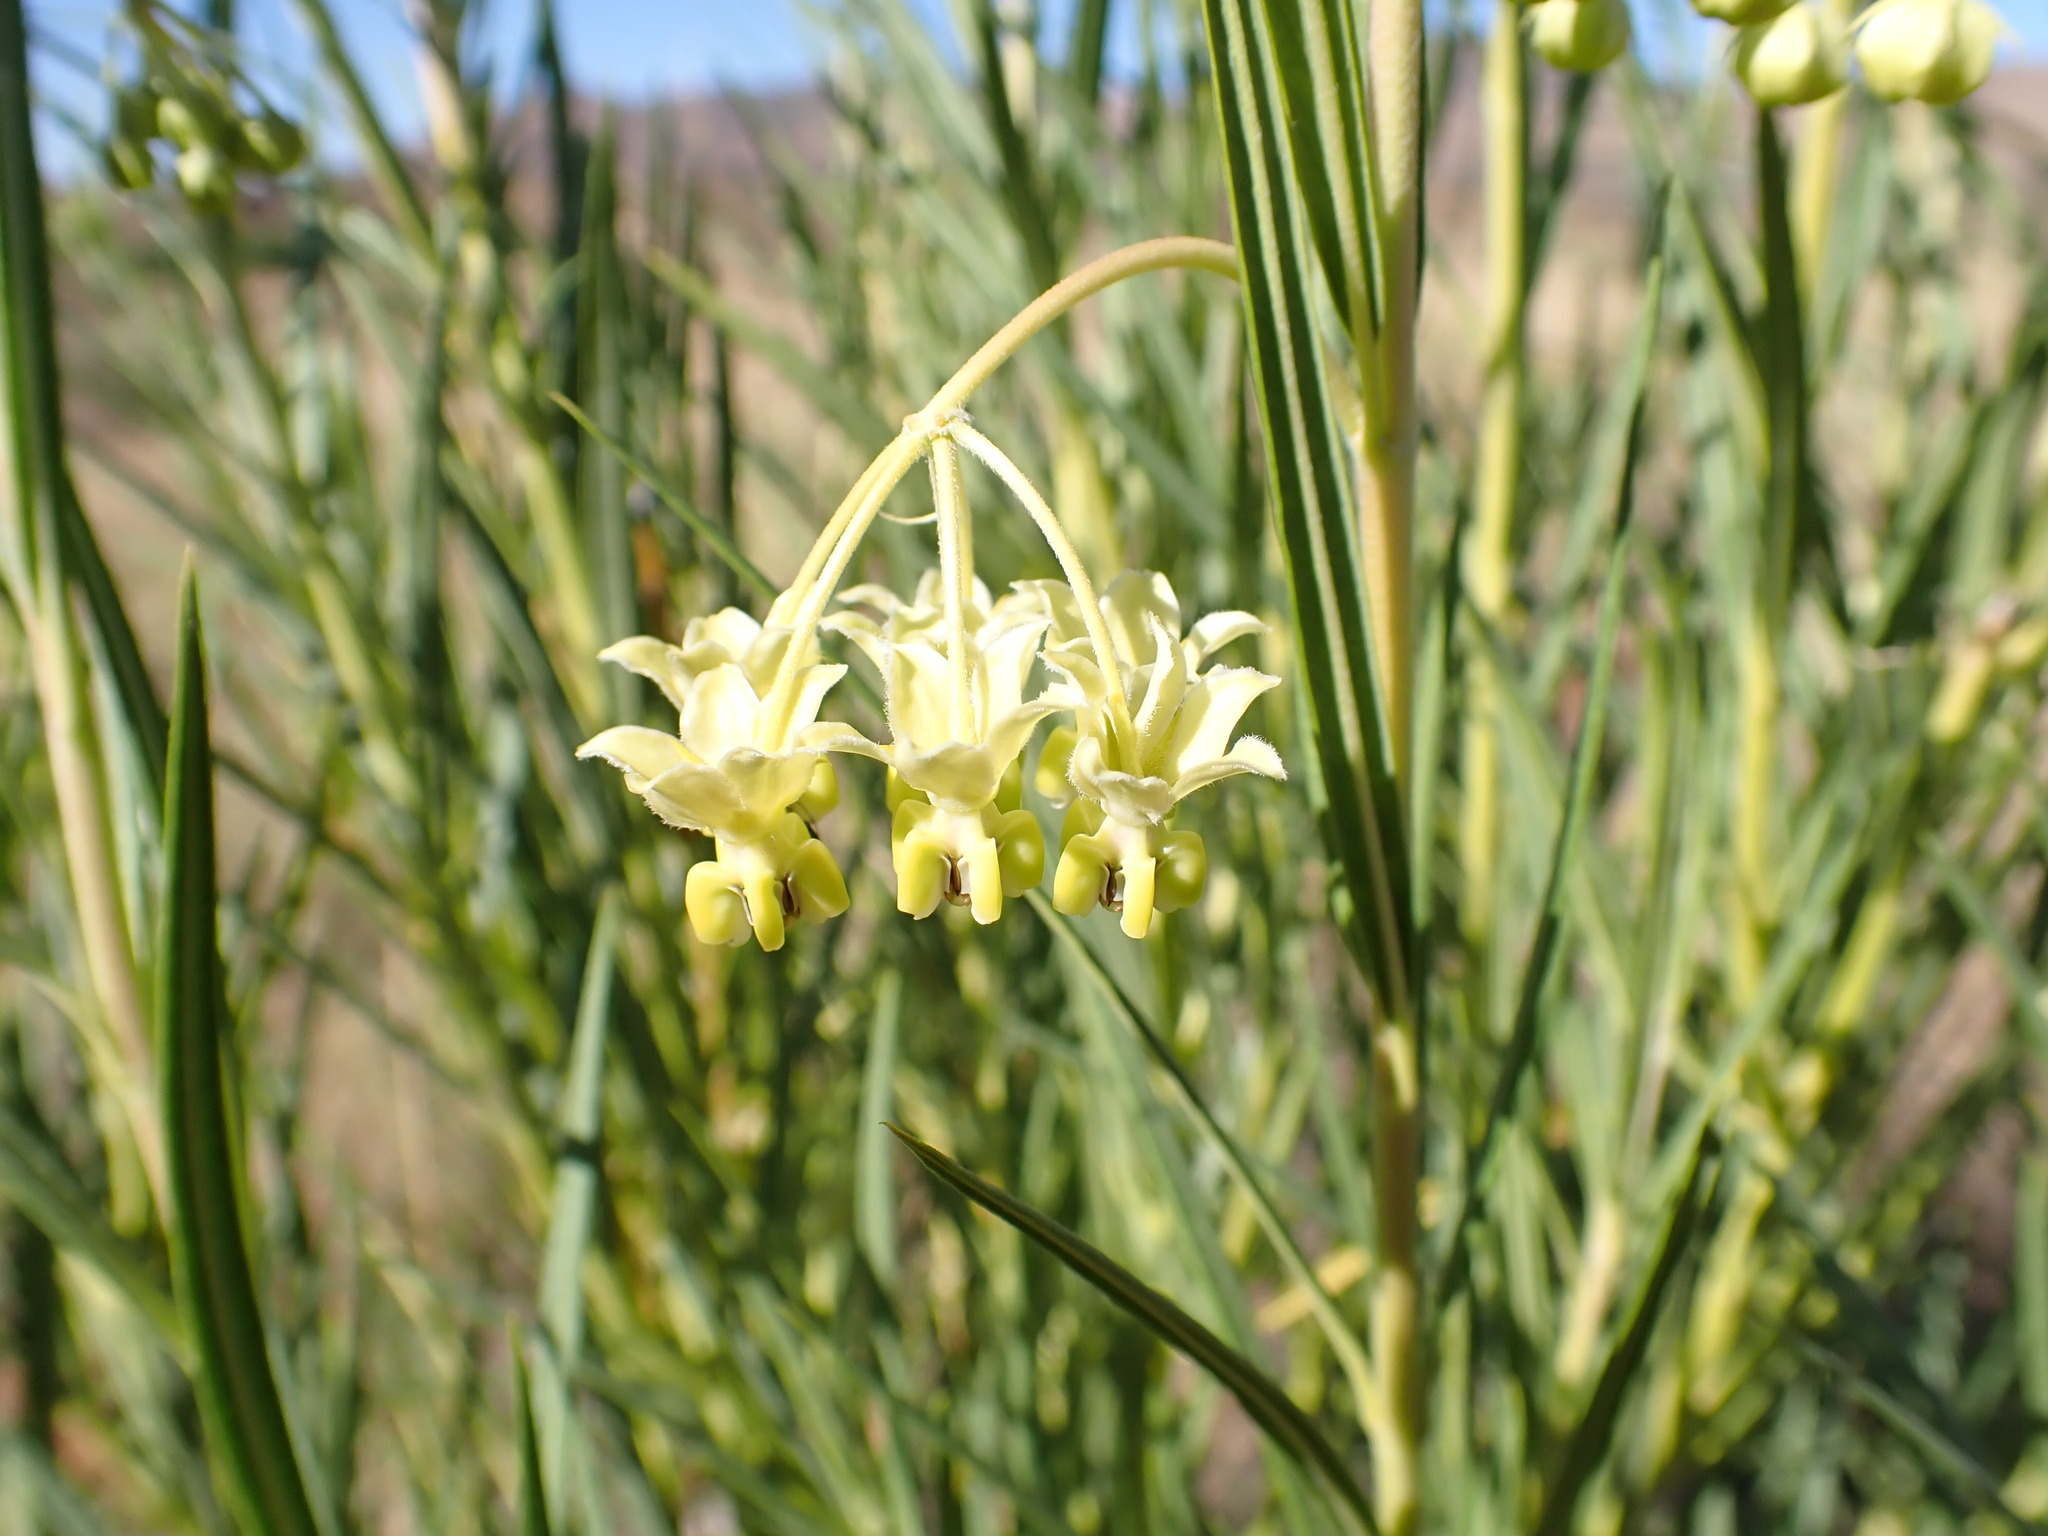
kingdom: Plantae
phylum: Tracheophyta
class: Magnoliopsida
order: Gentianales
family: Apocynaceae
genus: Gomphocarpus
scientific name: Gomphocarpus fruticosus
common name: Milkweed
